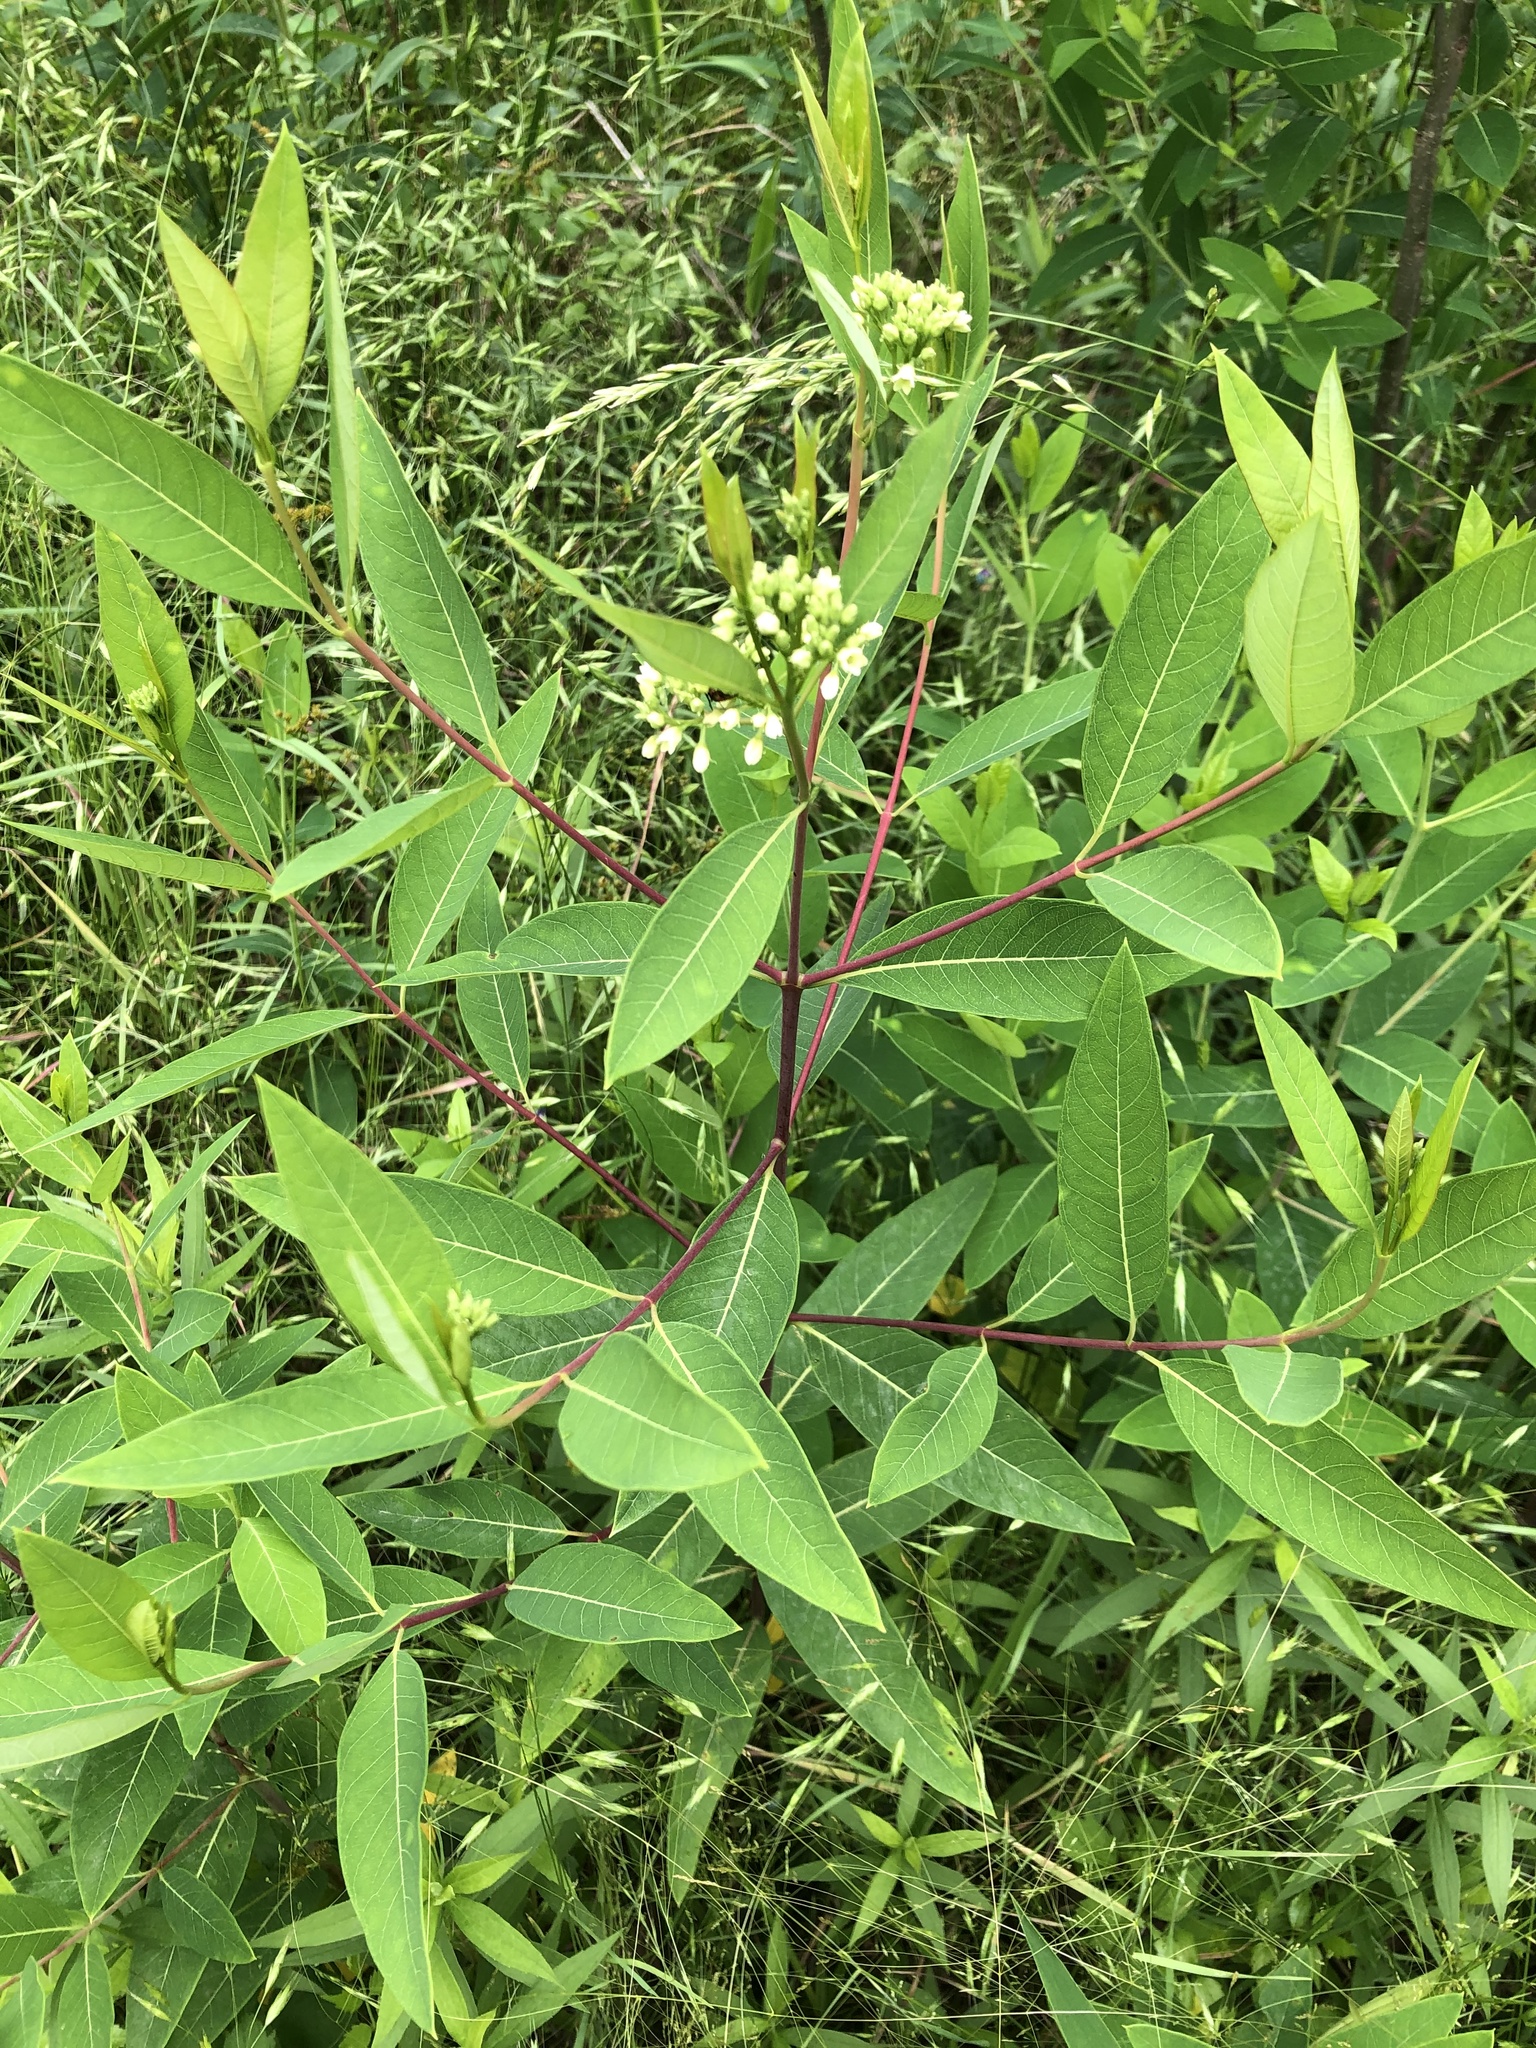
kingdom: Plantae
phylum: Tracheophyta
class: Magnoliopsida
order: Gentianales
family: Apocynaceae
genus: Apocynum
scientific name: Apocynum cannabinum
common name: Hemp dogbane
